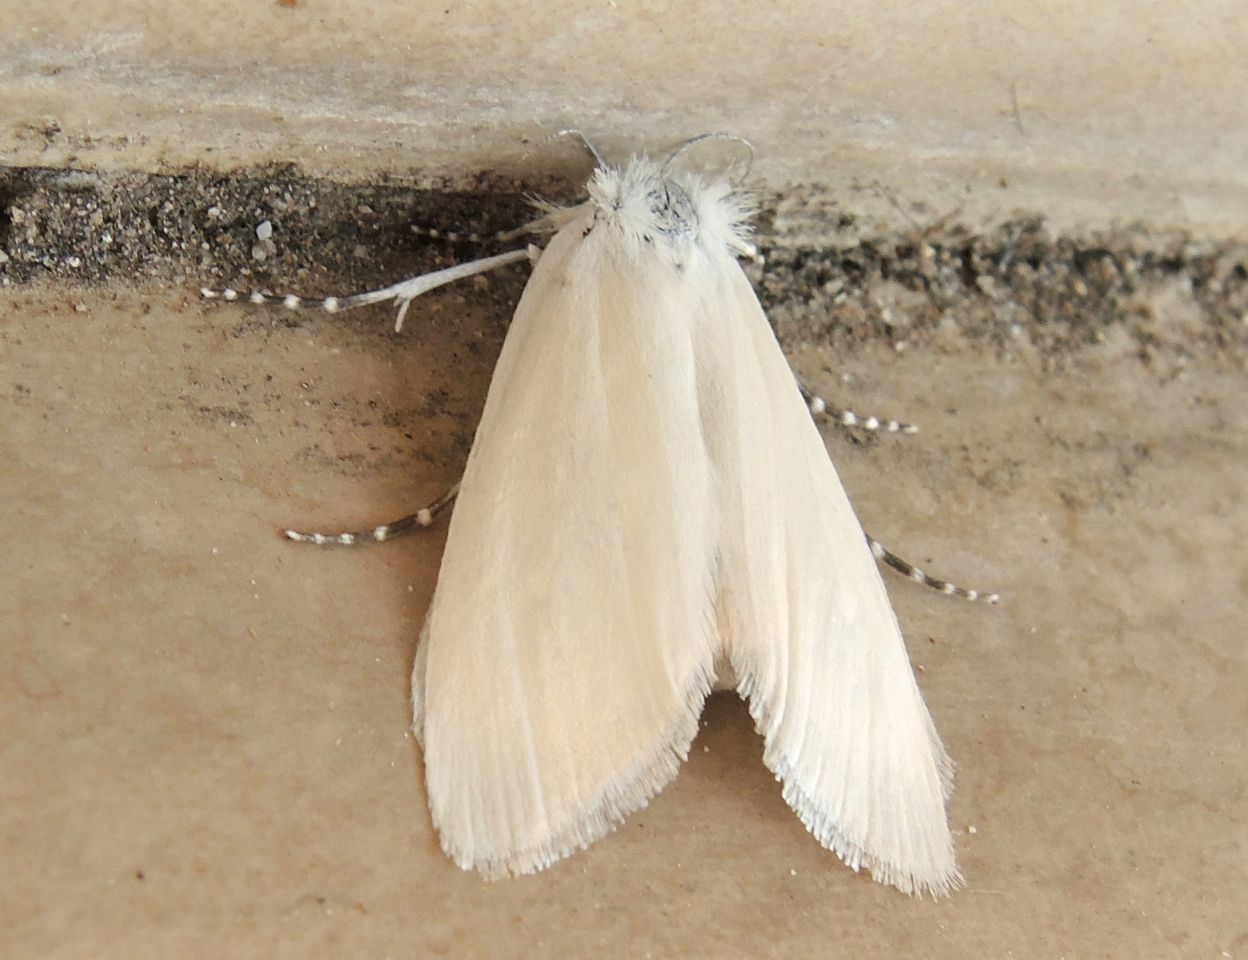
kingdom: Animalia
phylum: Arthropoda
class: Insecta
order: Lepidoptera
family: Crambidae
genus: Scirpophaga
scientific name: Scirpophaga praelata
